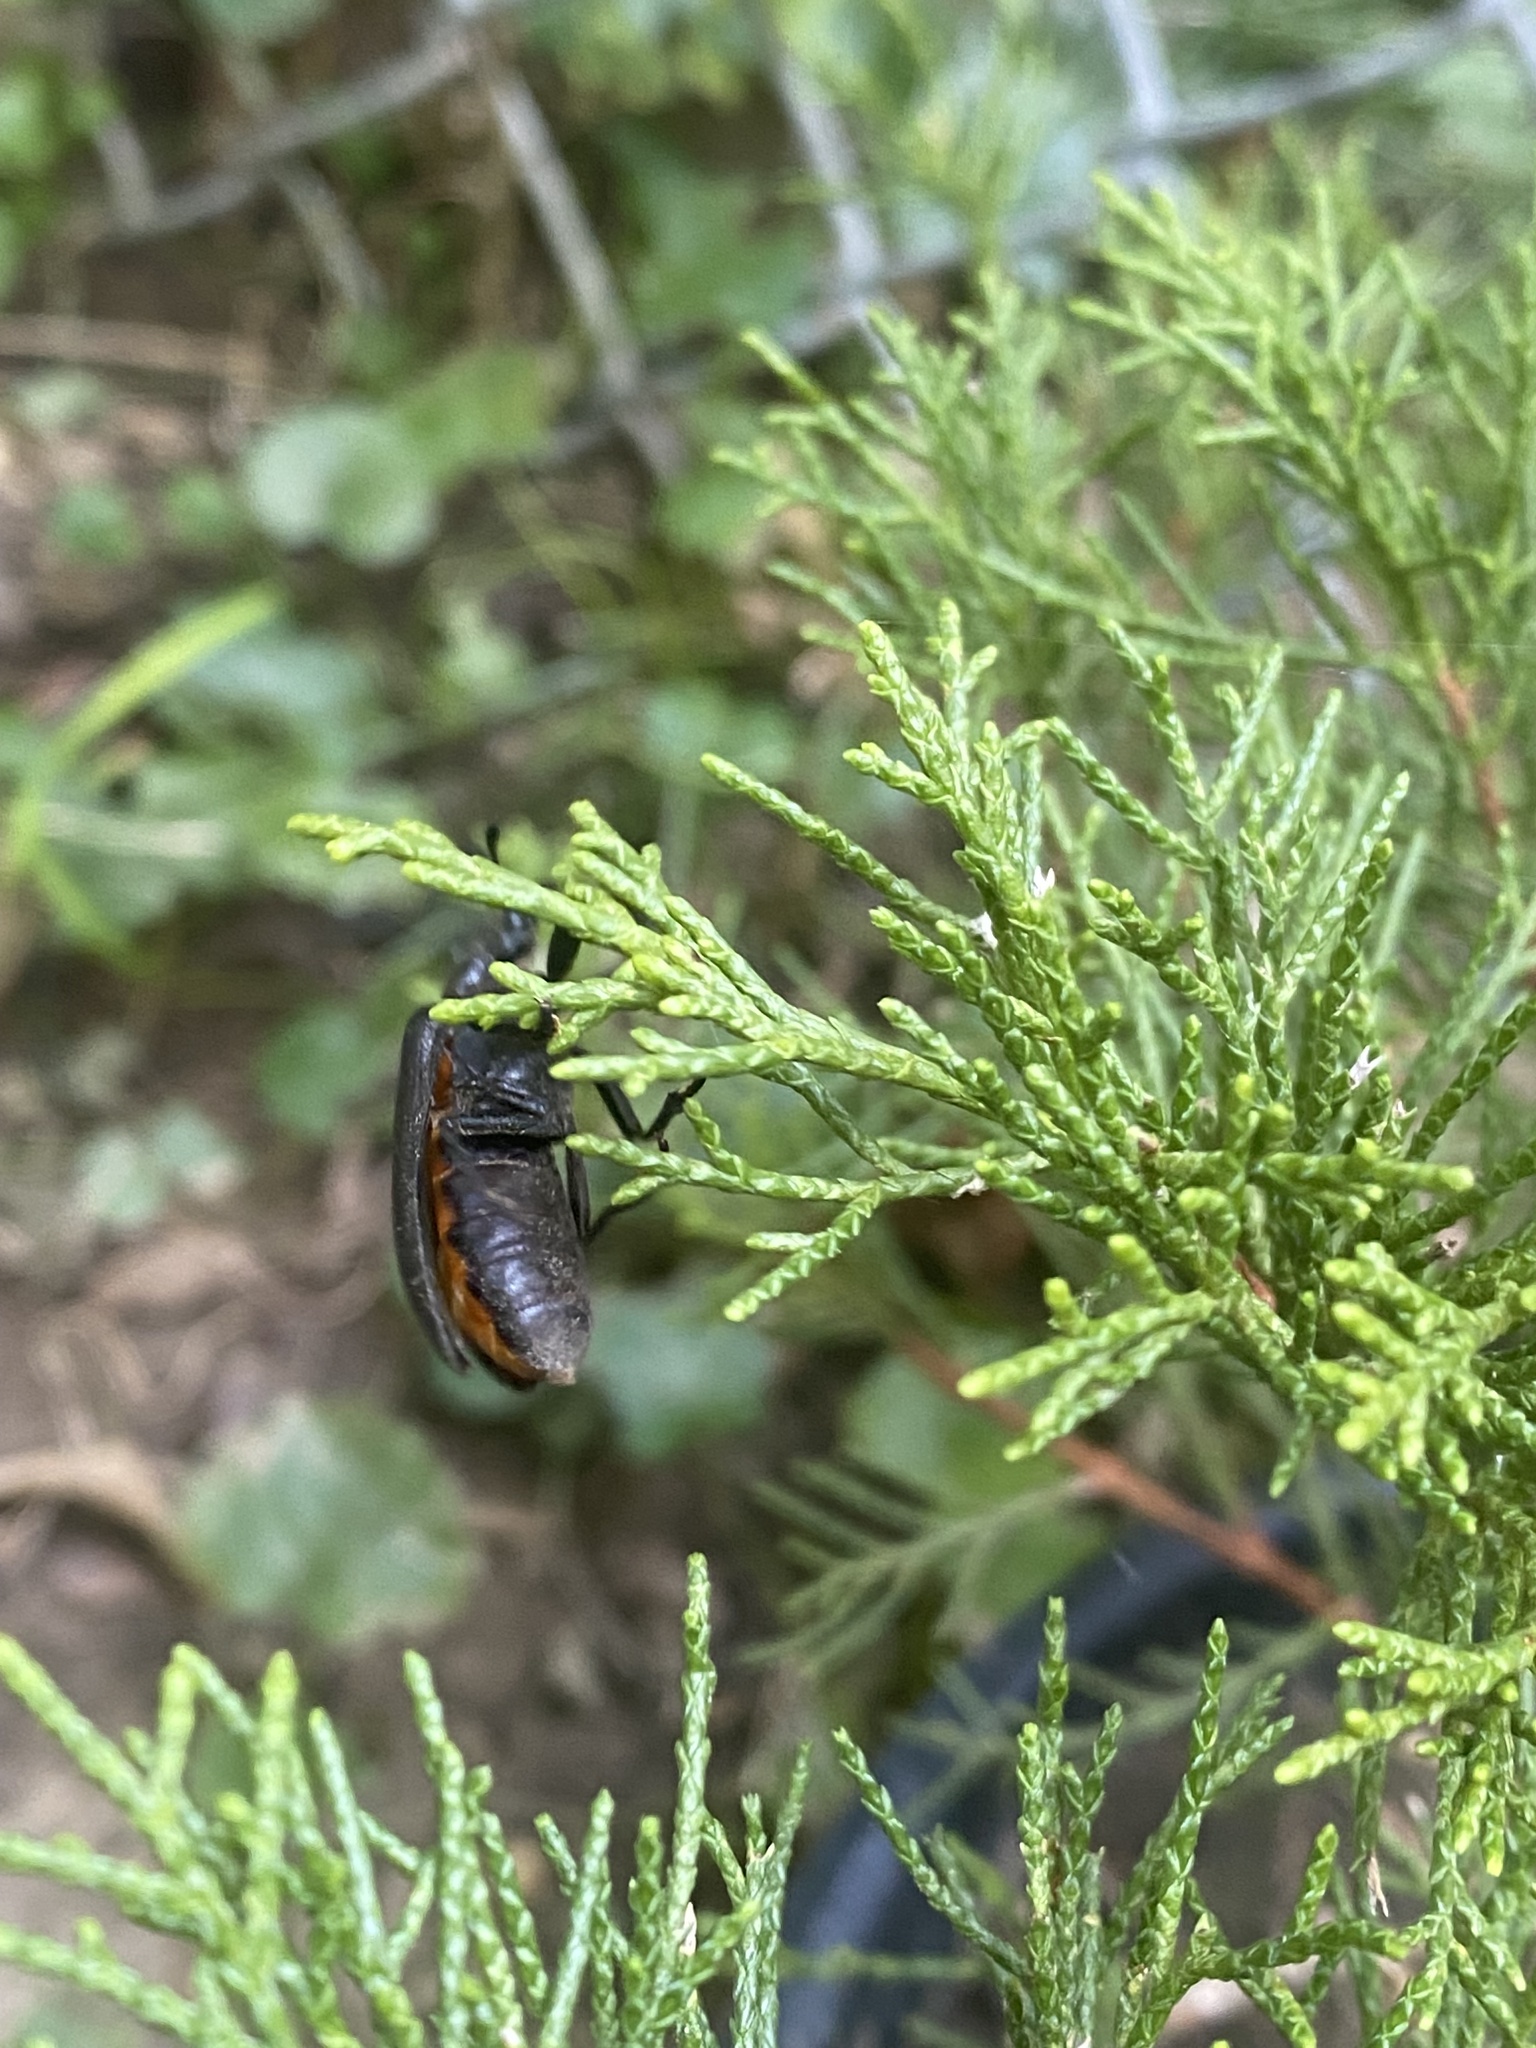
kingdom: Animalia
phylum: Arthropoda
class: Insecta
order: Coleoptera
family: Rhipiceridae
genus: Sandalus
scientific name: Sandalus niger
